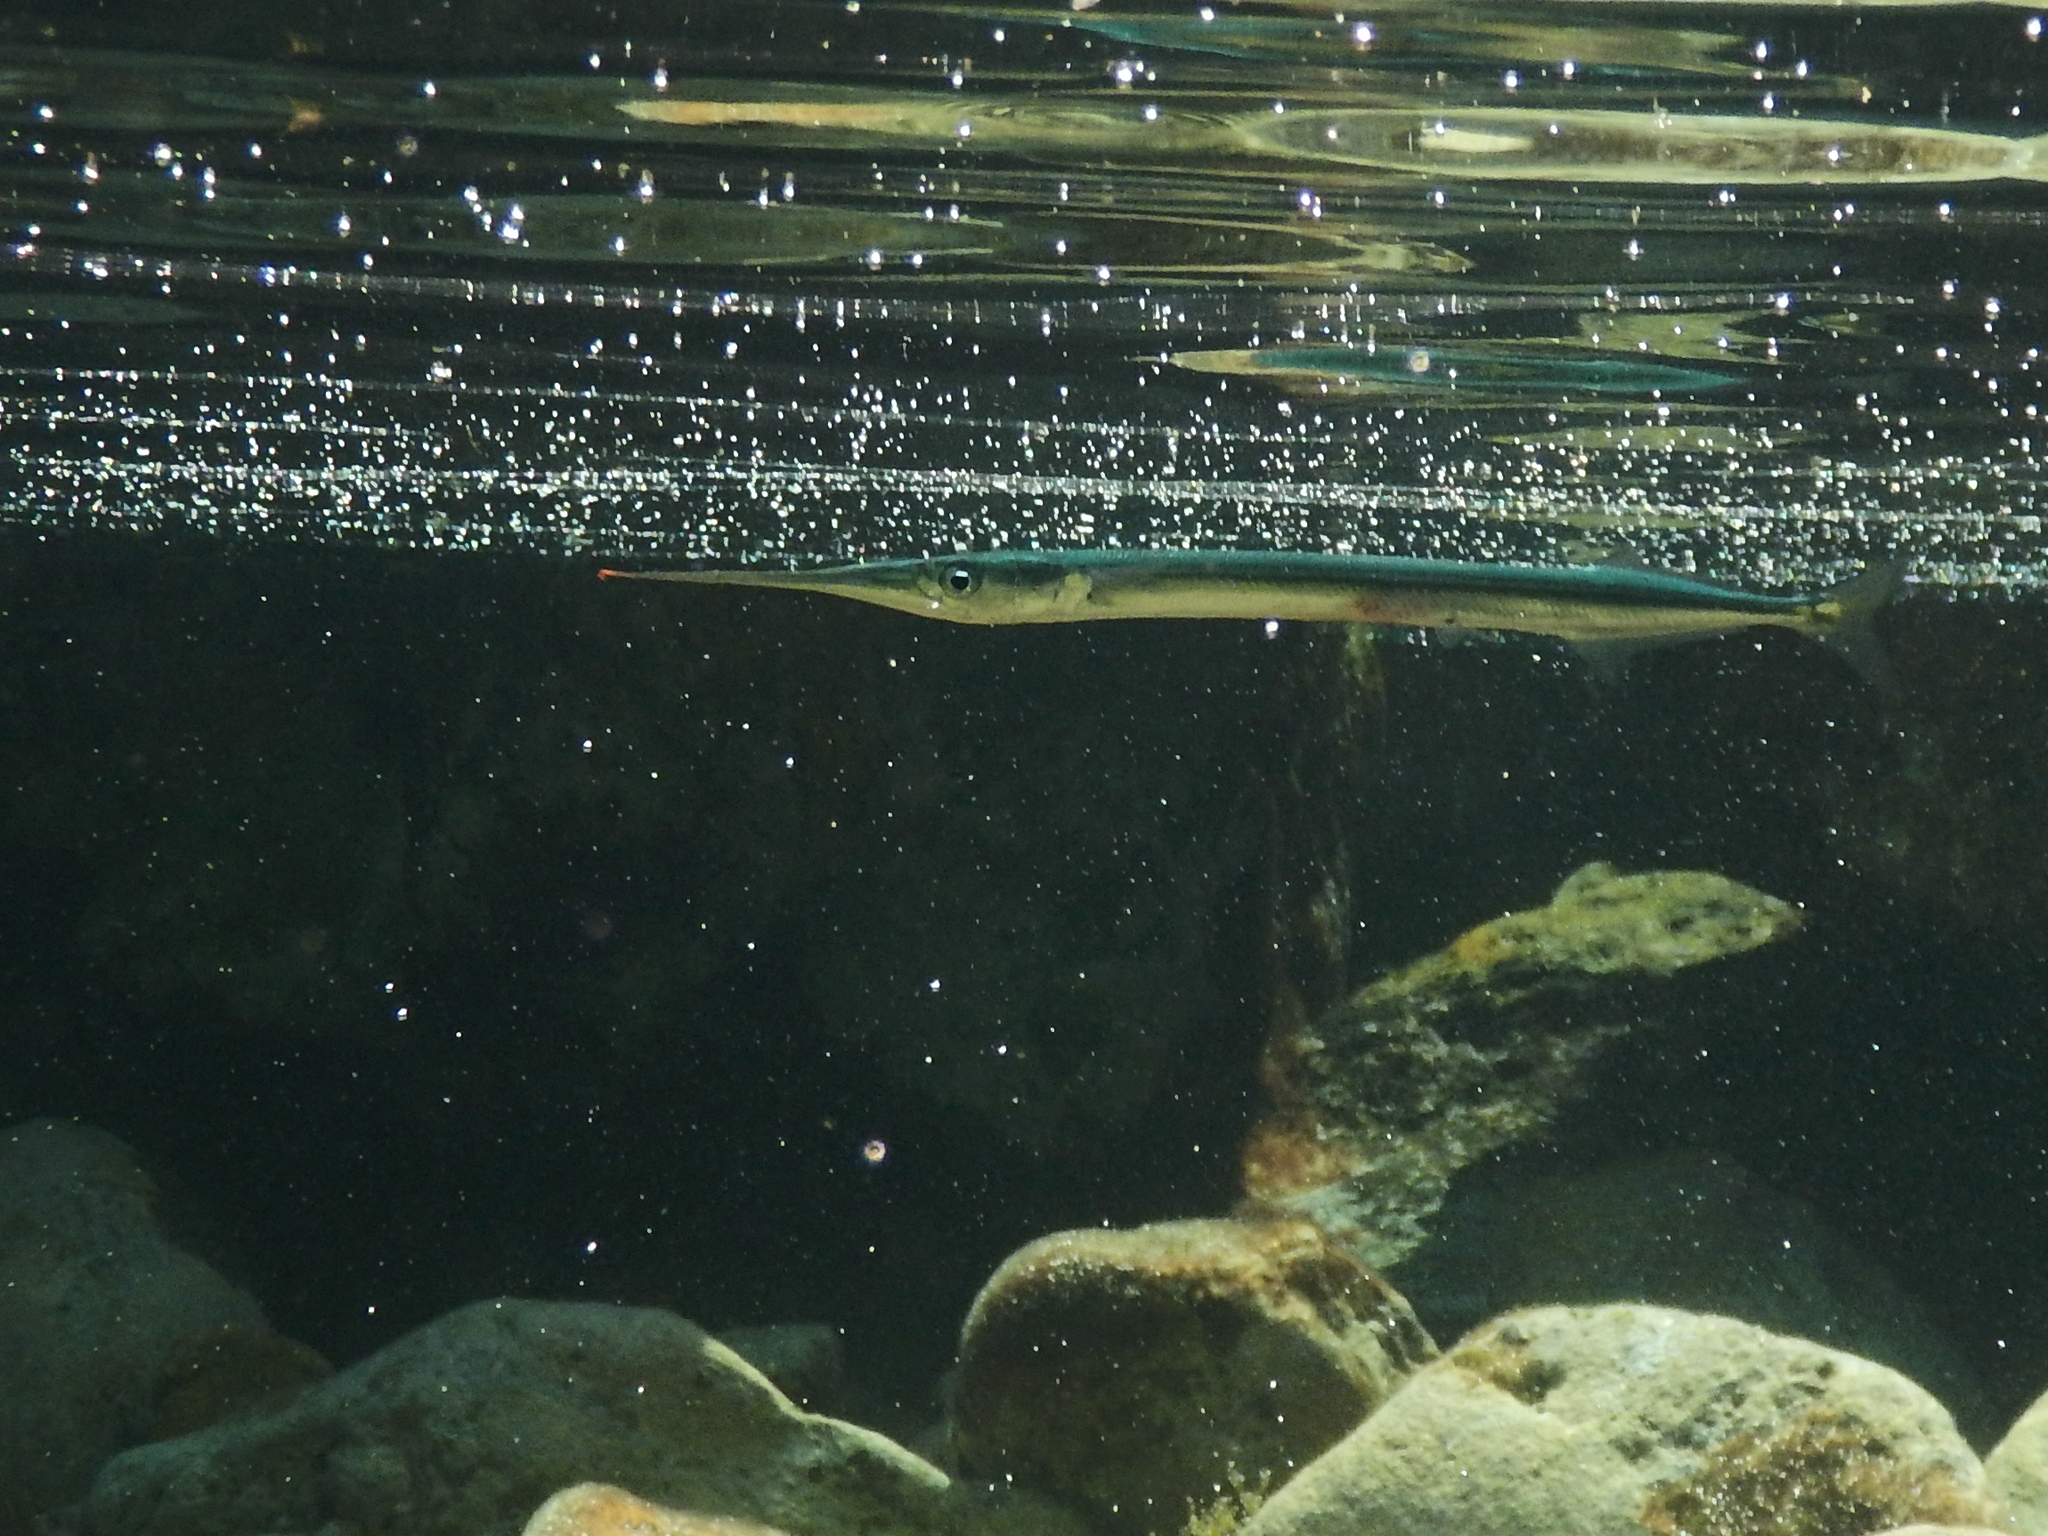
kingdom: Animalia
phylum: Chordata
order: Beloniformes
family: Belonidae
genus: Belone
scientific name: Belone belone
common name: Garfish
